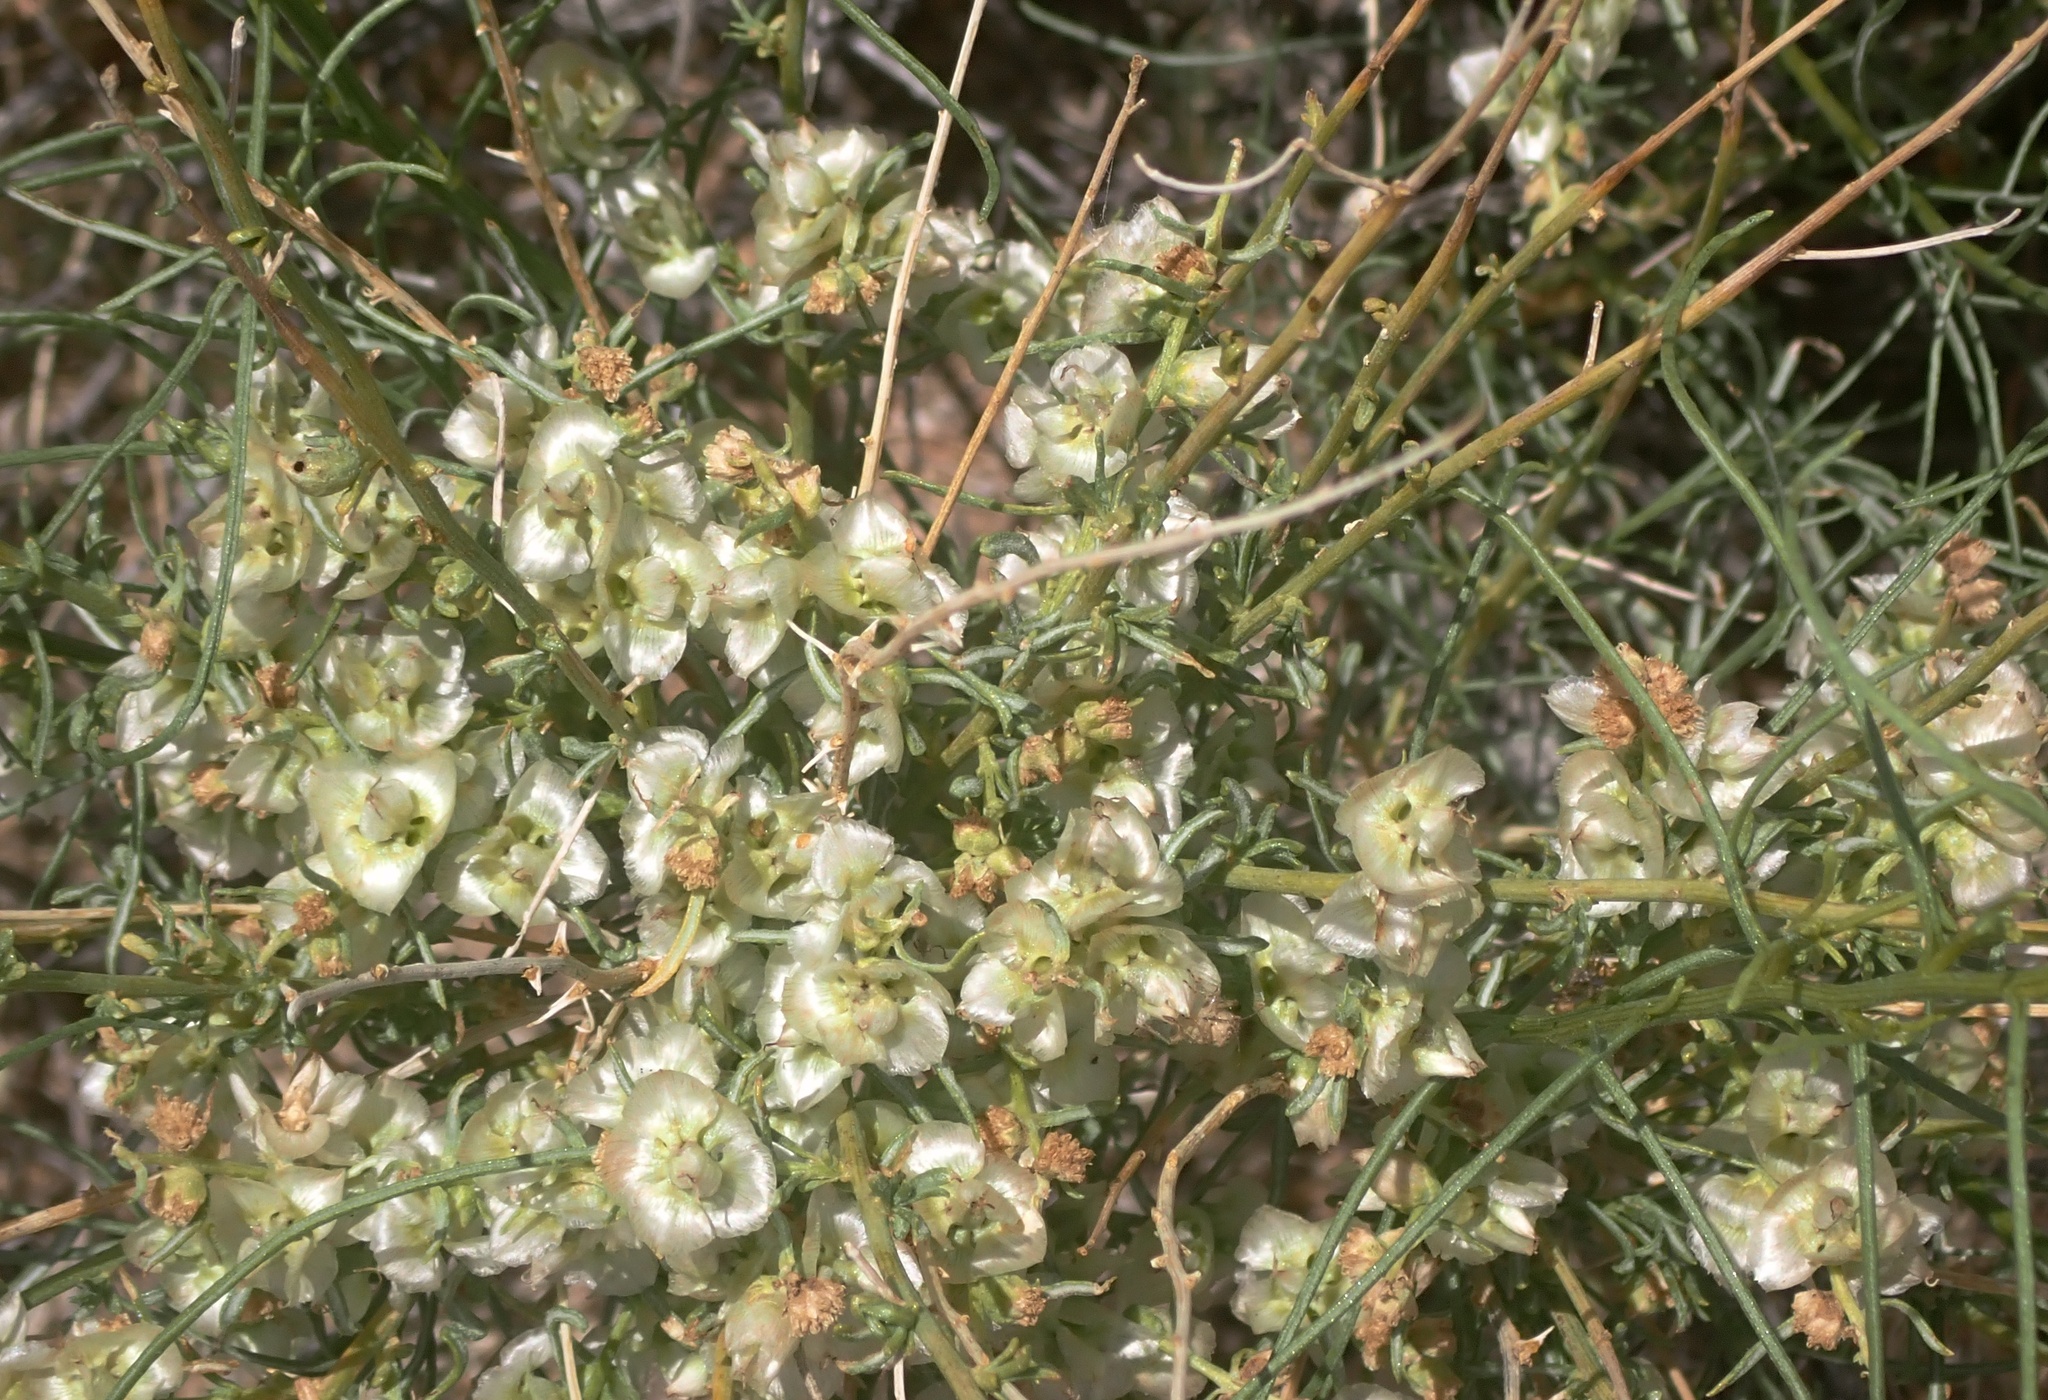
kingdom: Plantae
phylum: Tracheophyta
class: Magnoliopsida
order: Asterales
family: Asteraceae
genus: Ambrosia
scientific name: Ambrosia salsola
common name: Burrobrush
